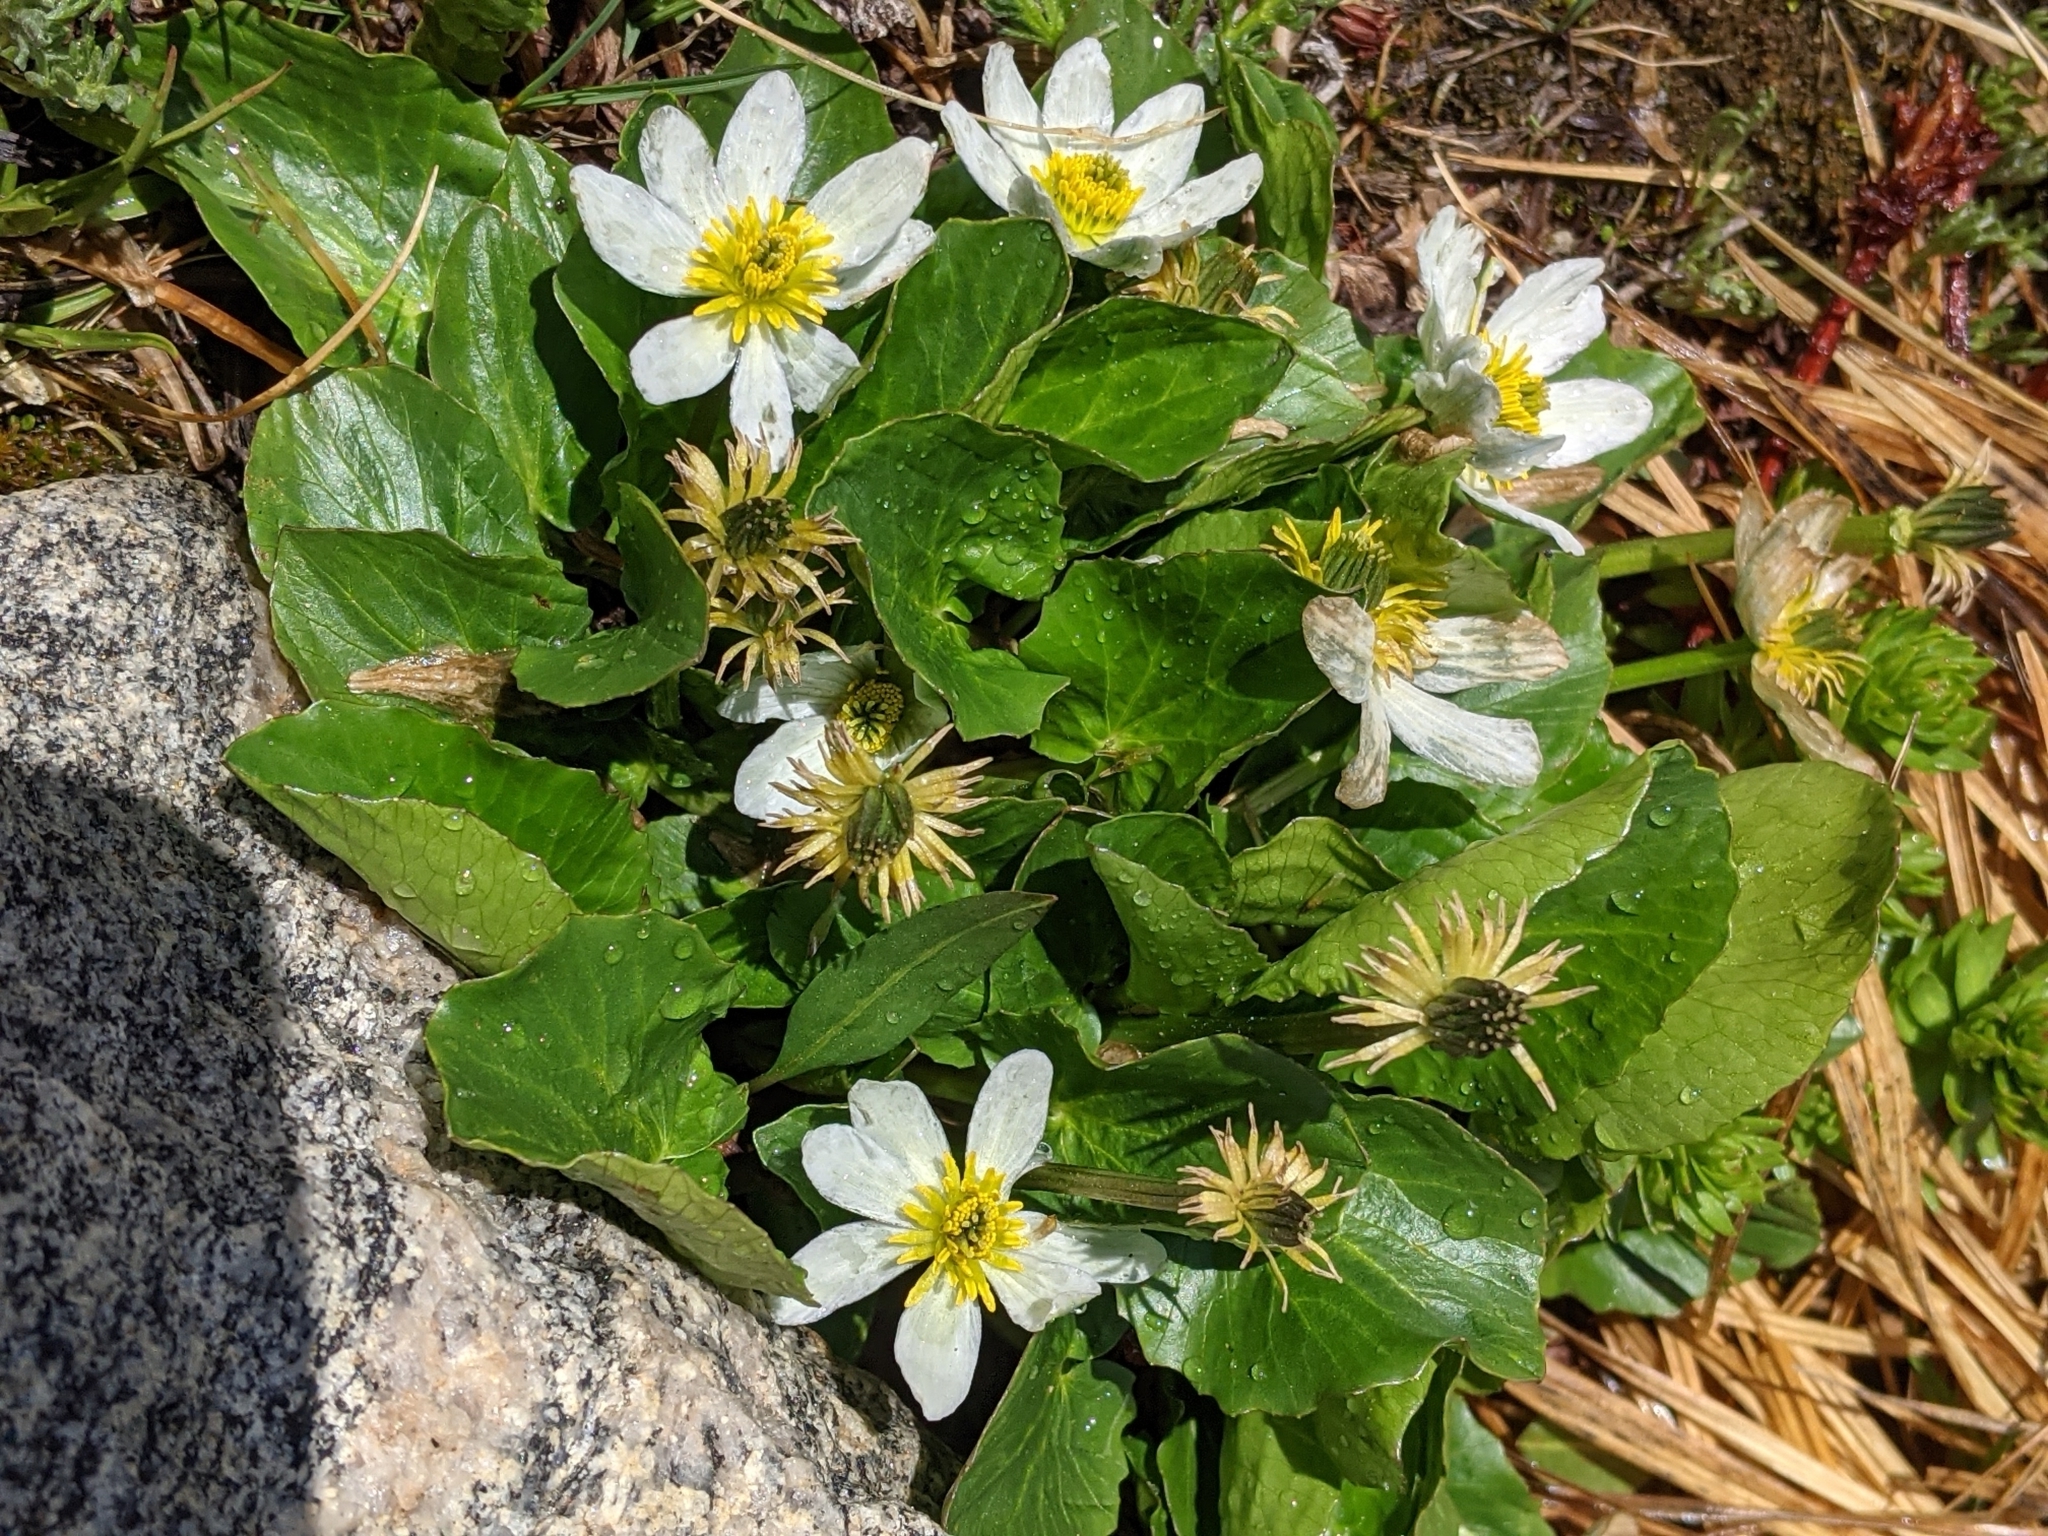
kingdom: Plantae
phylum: Tracheophyta
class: Magnoliopsida
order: Ranunculales
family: Ranunculaceae
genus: Caltha
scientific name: Caltha leptosepala
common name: Elkslip
